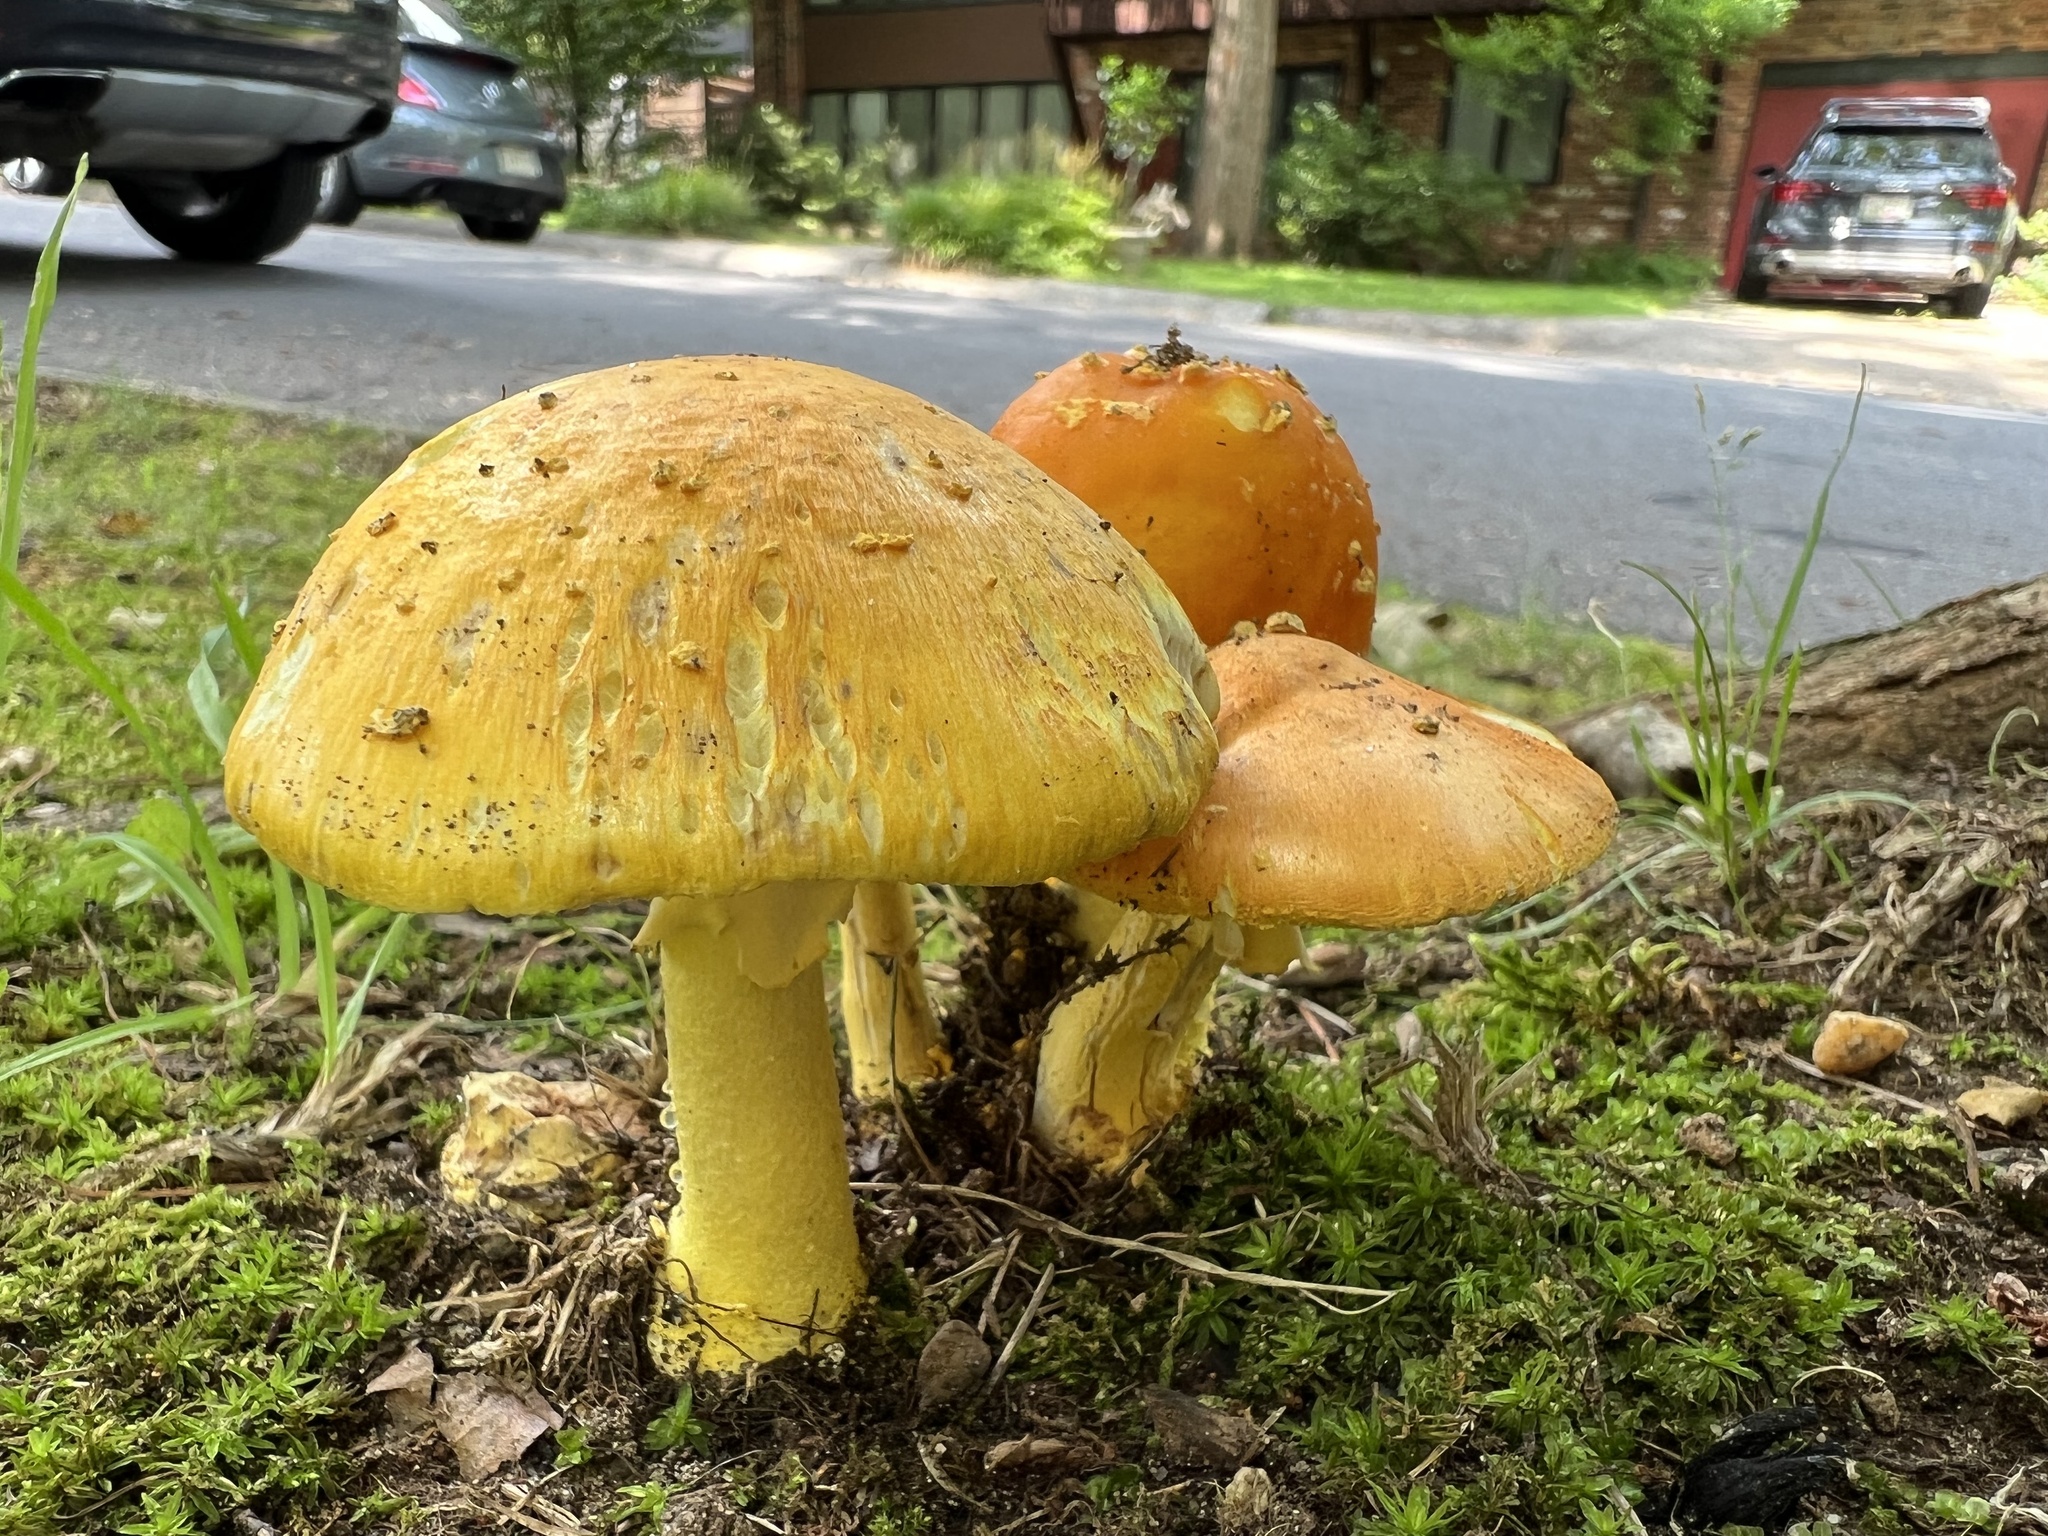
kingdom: Fungi
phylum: Basidiomycota
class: Agaricomycetes
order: Agaricales
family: Amanitaceae
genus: Amanita
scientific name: Amanita flavoconia
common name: Yellow patches
